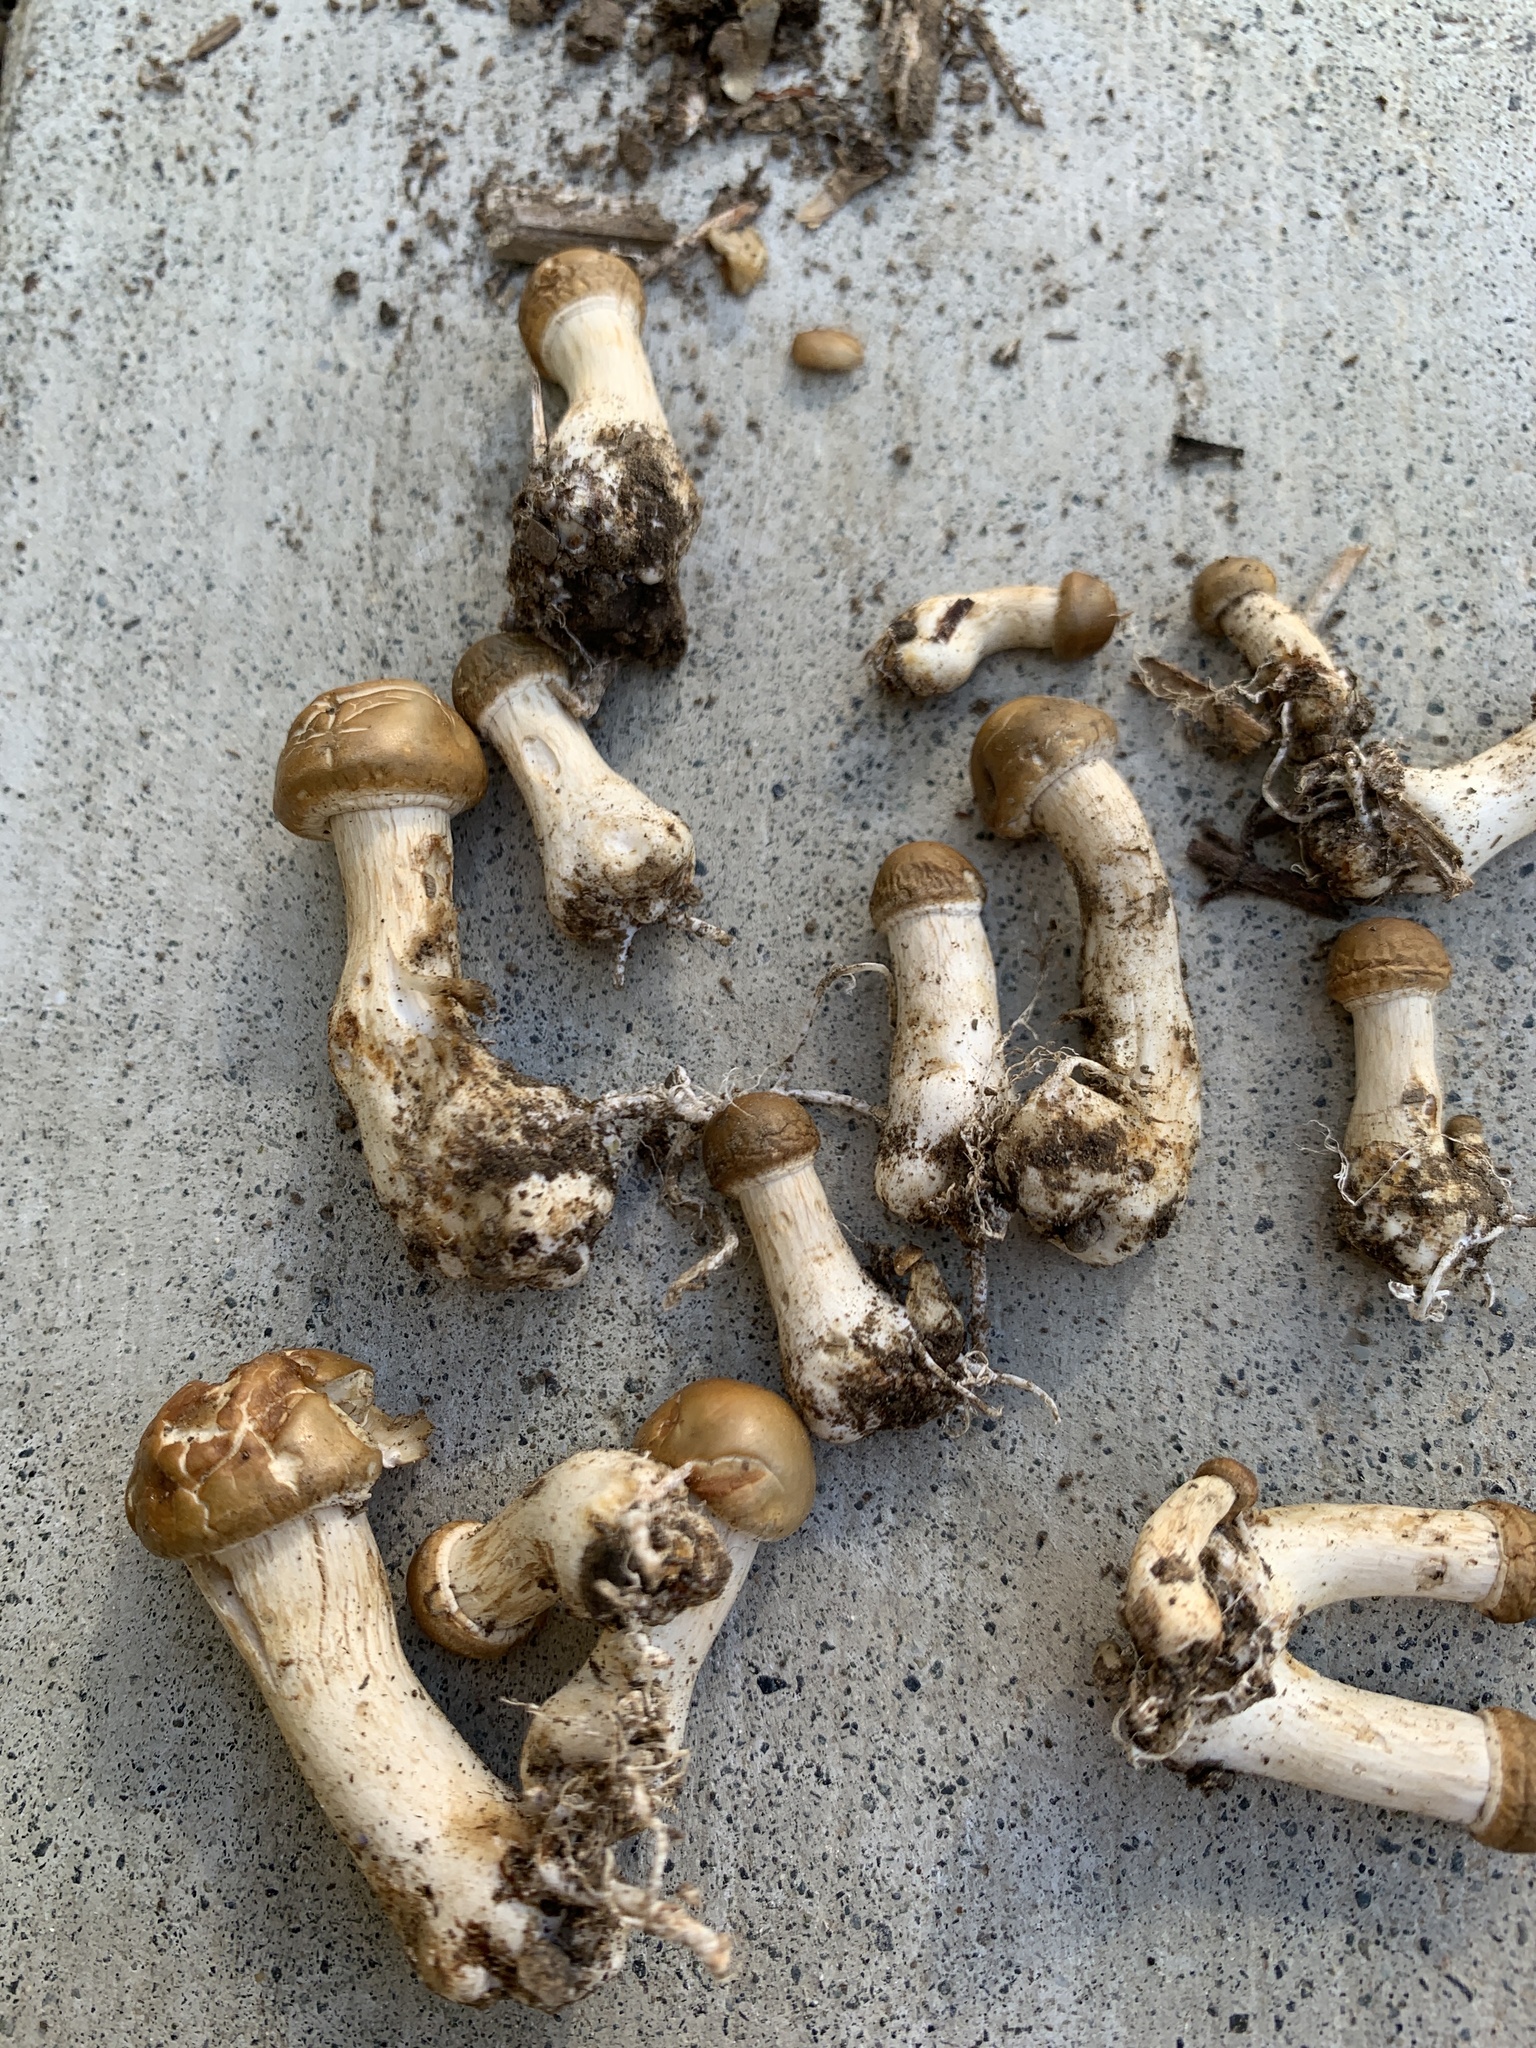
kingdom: Fungi
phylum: Basidiomycota
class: Agaricomycetes
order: Agaricales
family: Strophariaceae
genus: Agrocybe
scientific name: Agrocybe praecox
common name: Spring fieldcap
